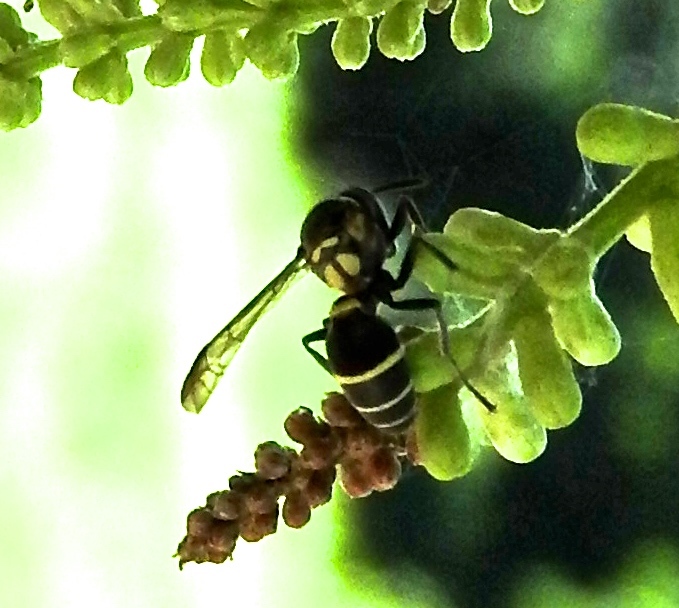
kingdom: Animalia
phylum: Arthropoda
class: Insecta
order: Hymenoptera
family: Vespidae
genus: Myrapetra
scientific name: Myrapetra
